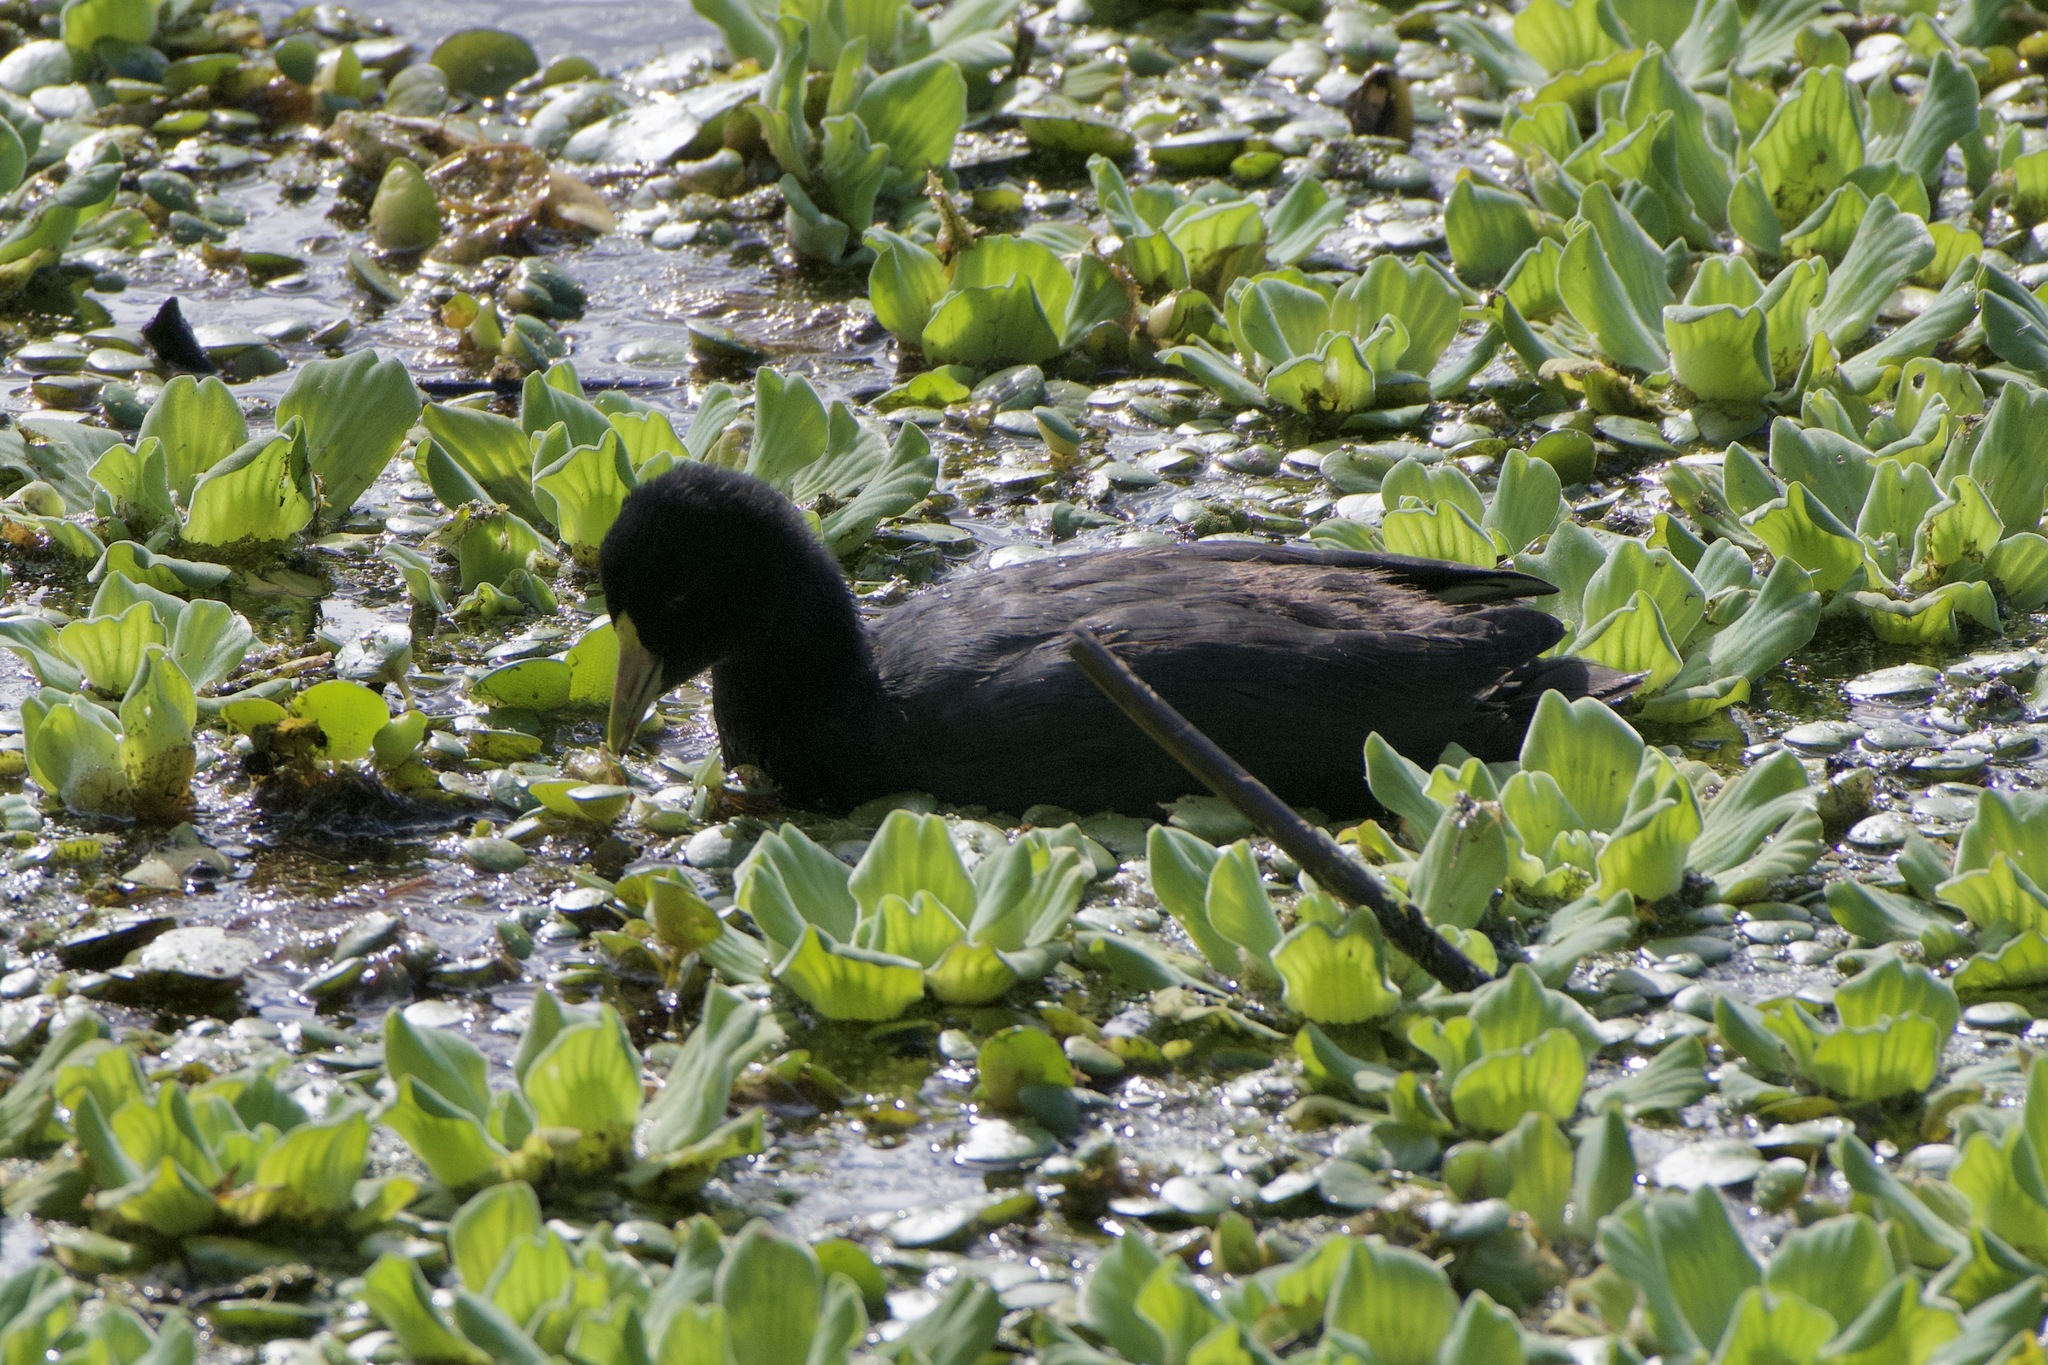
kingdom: Animalia
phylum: Chordata
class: Aves
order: Gruiformes
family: Rallidae
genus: Fulica
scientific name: Fulica leucoptera
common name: White-winged coot
